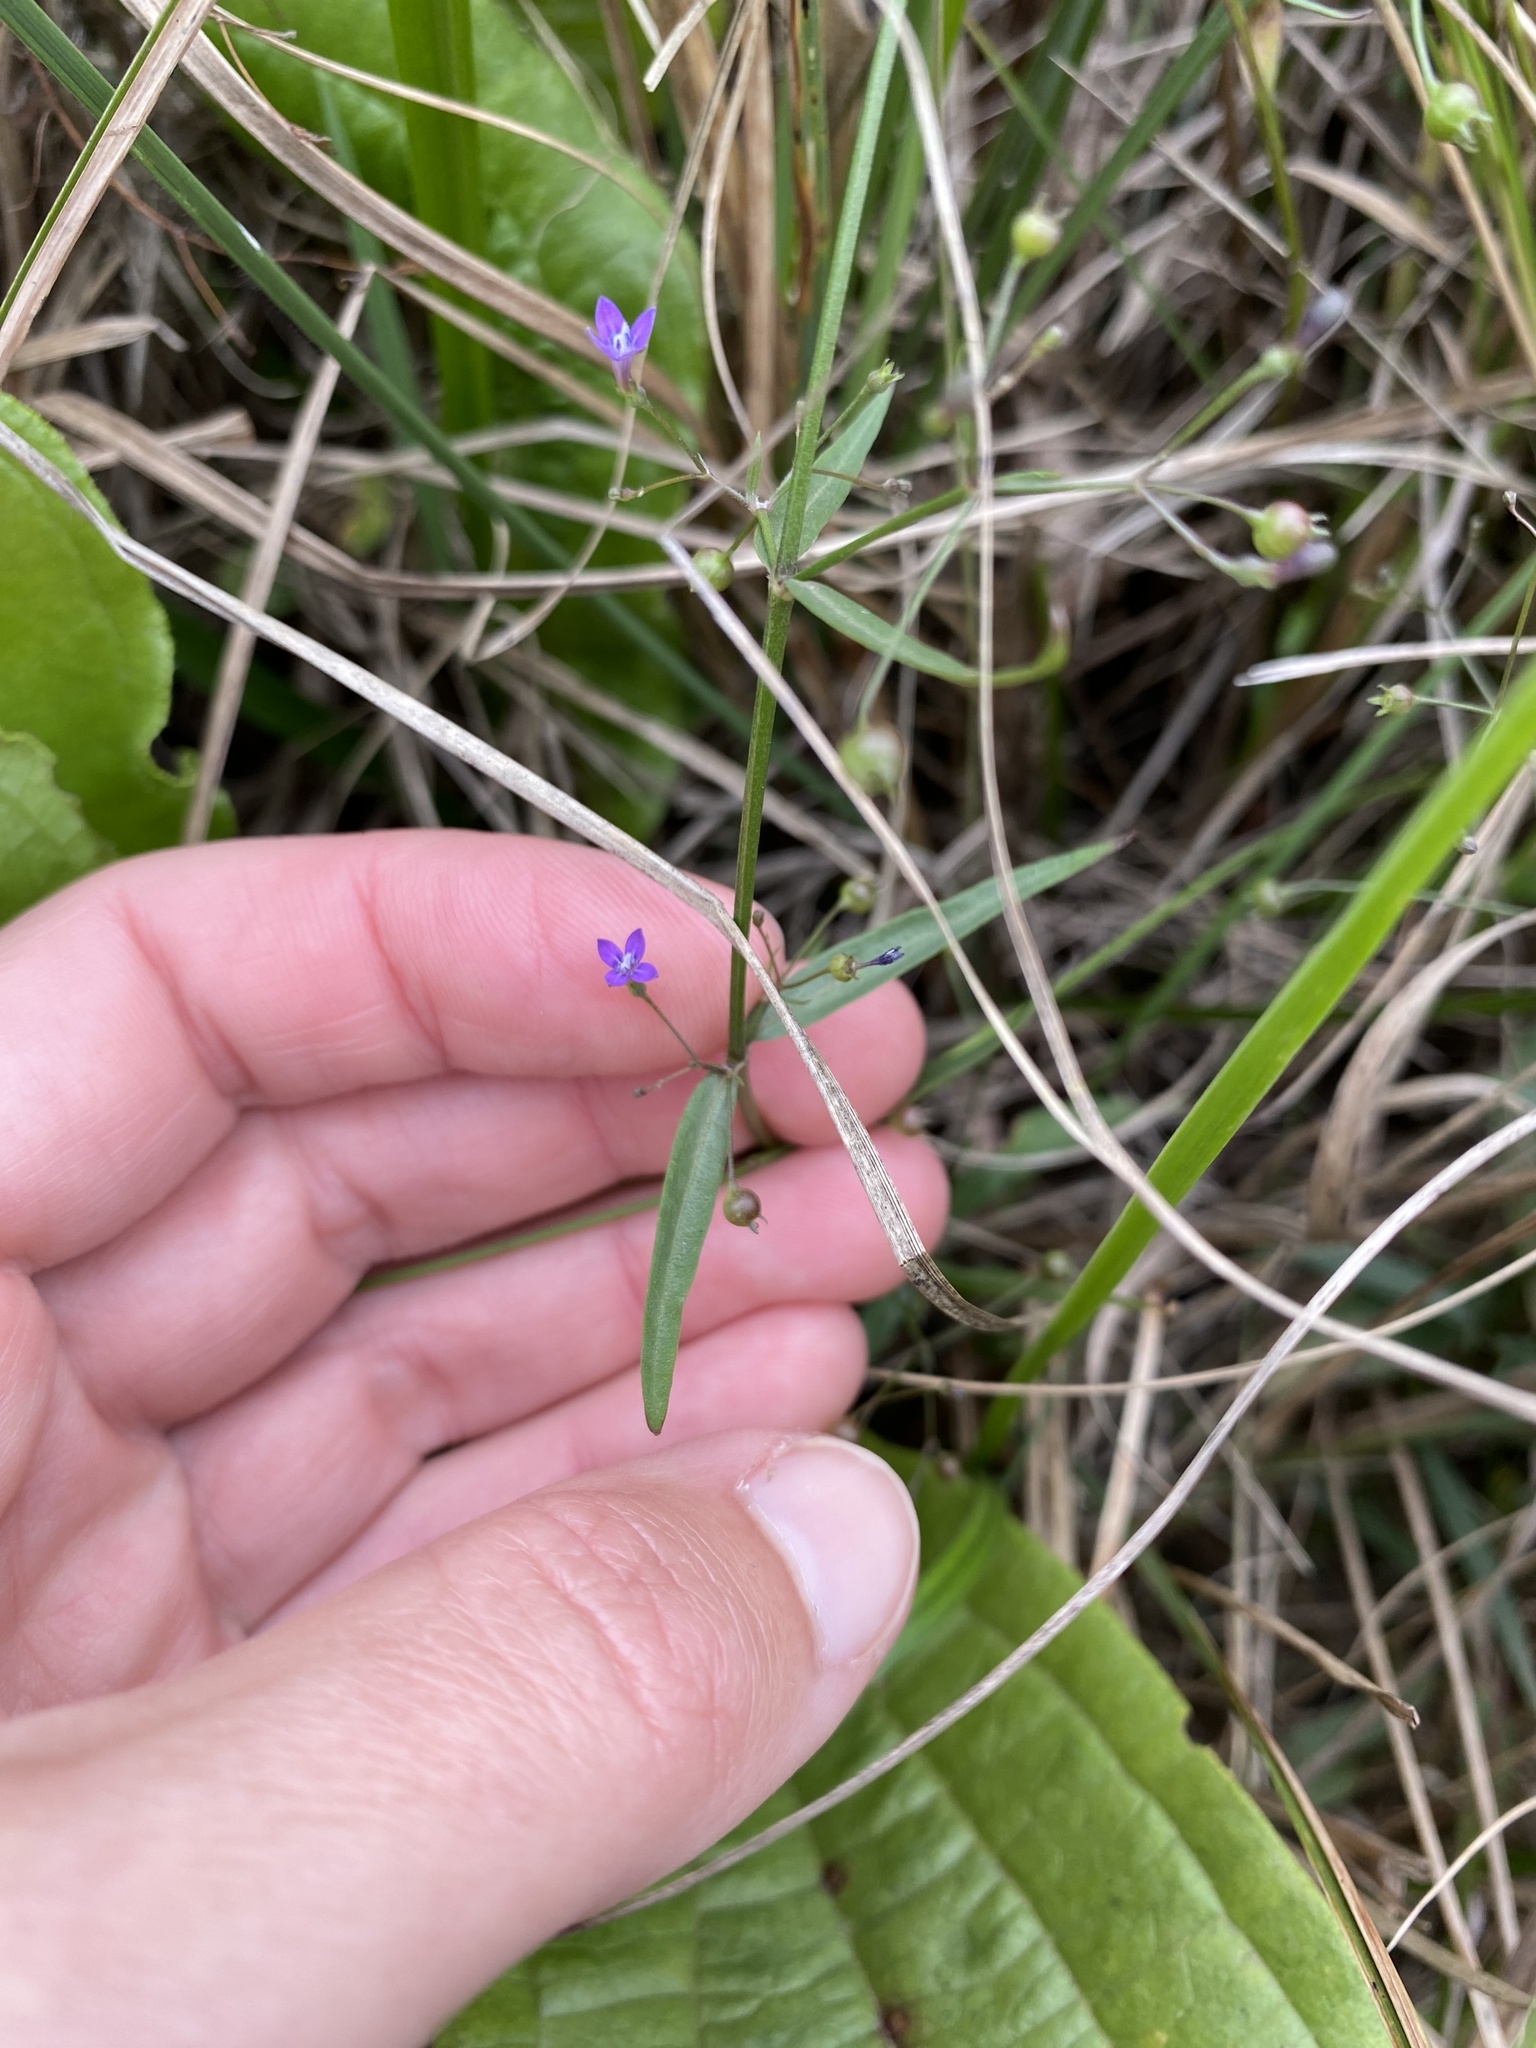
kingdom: Plantae
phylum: Tracheophyta
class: Magnoliopsida
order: Gentianales
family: Rubiaceae
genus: Oldenlandia
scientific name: Oldenlandia affinis
